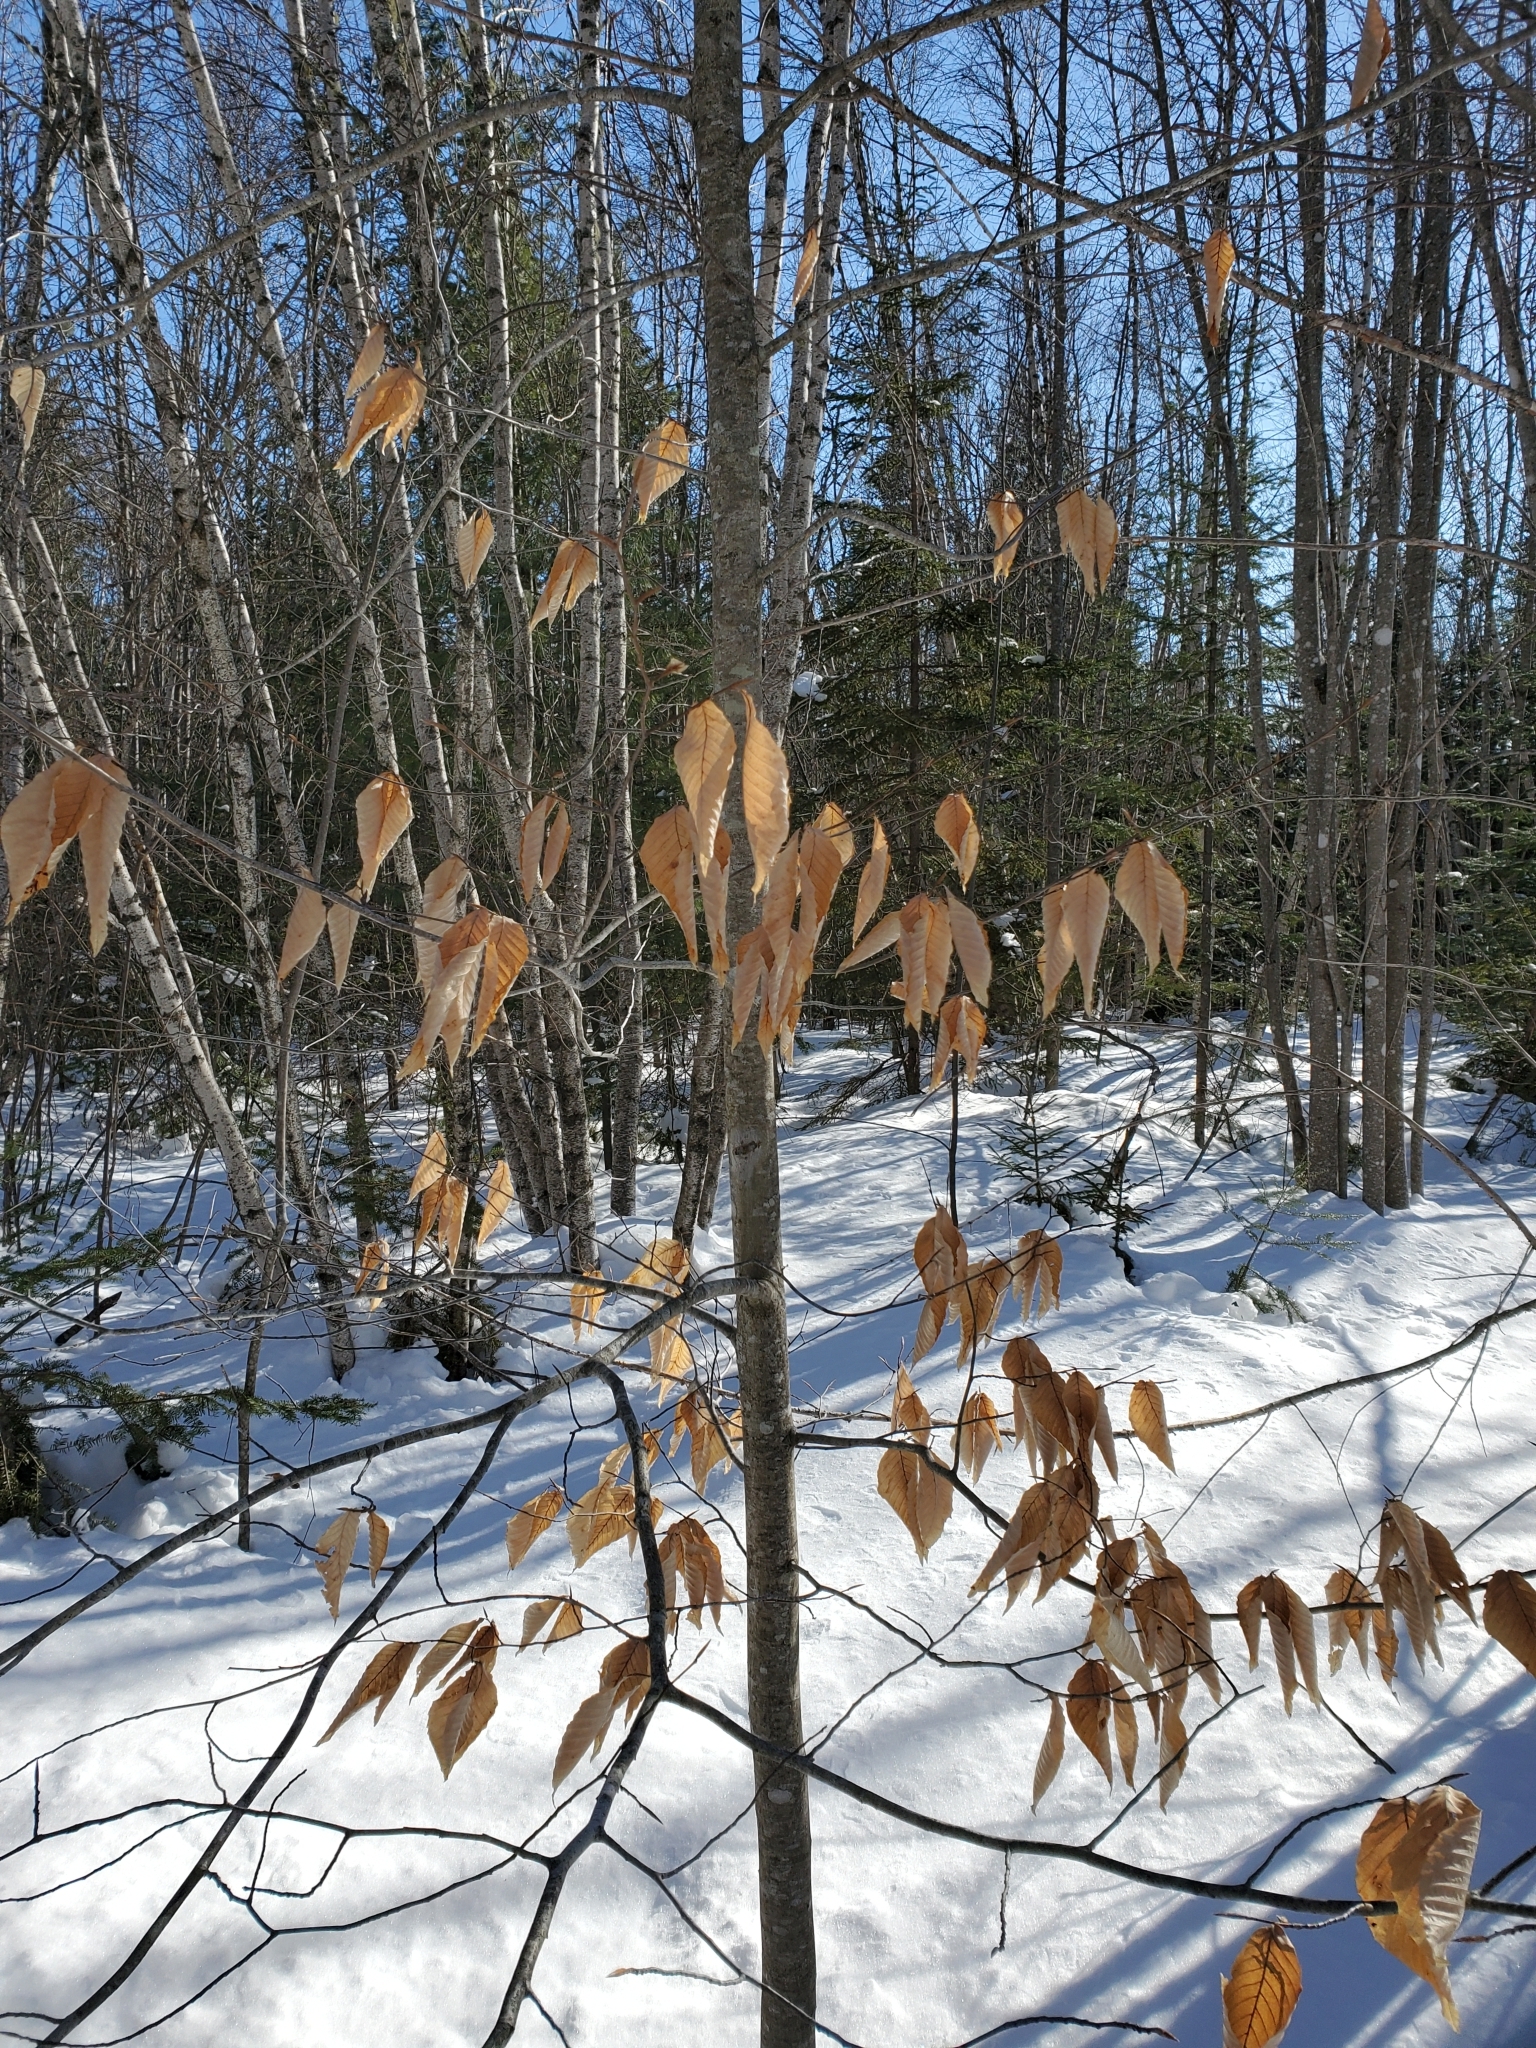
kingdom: Plantae
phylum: Tracheophyta
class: Magnoliopsida
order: Fagales
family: Fagaceae
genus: Fagus
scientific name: Fagus grandifolia
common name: American beech
